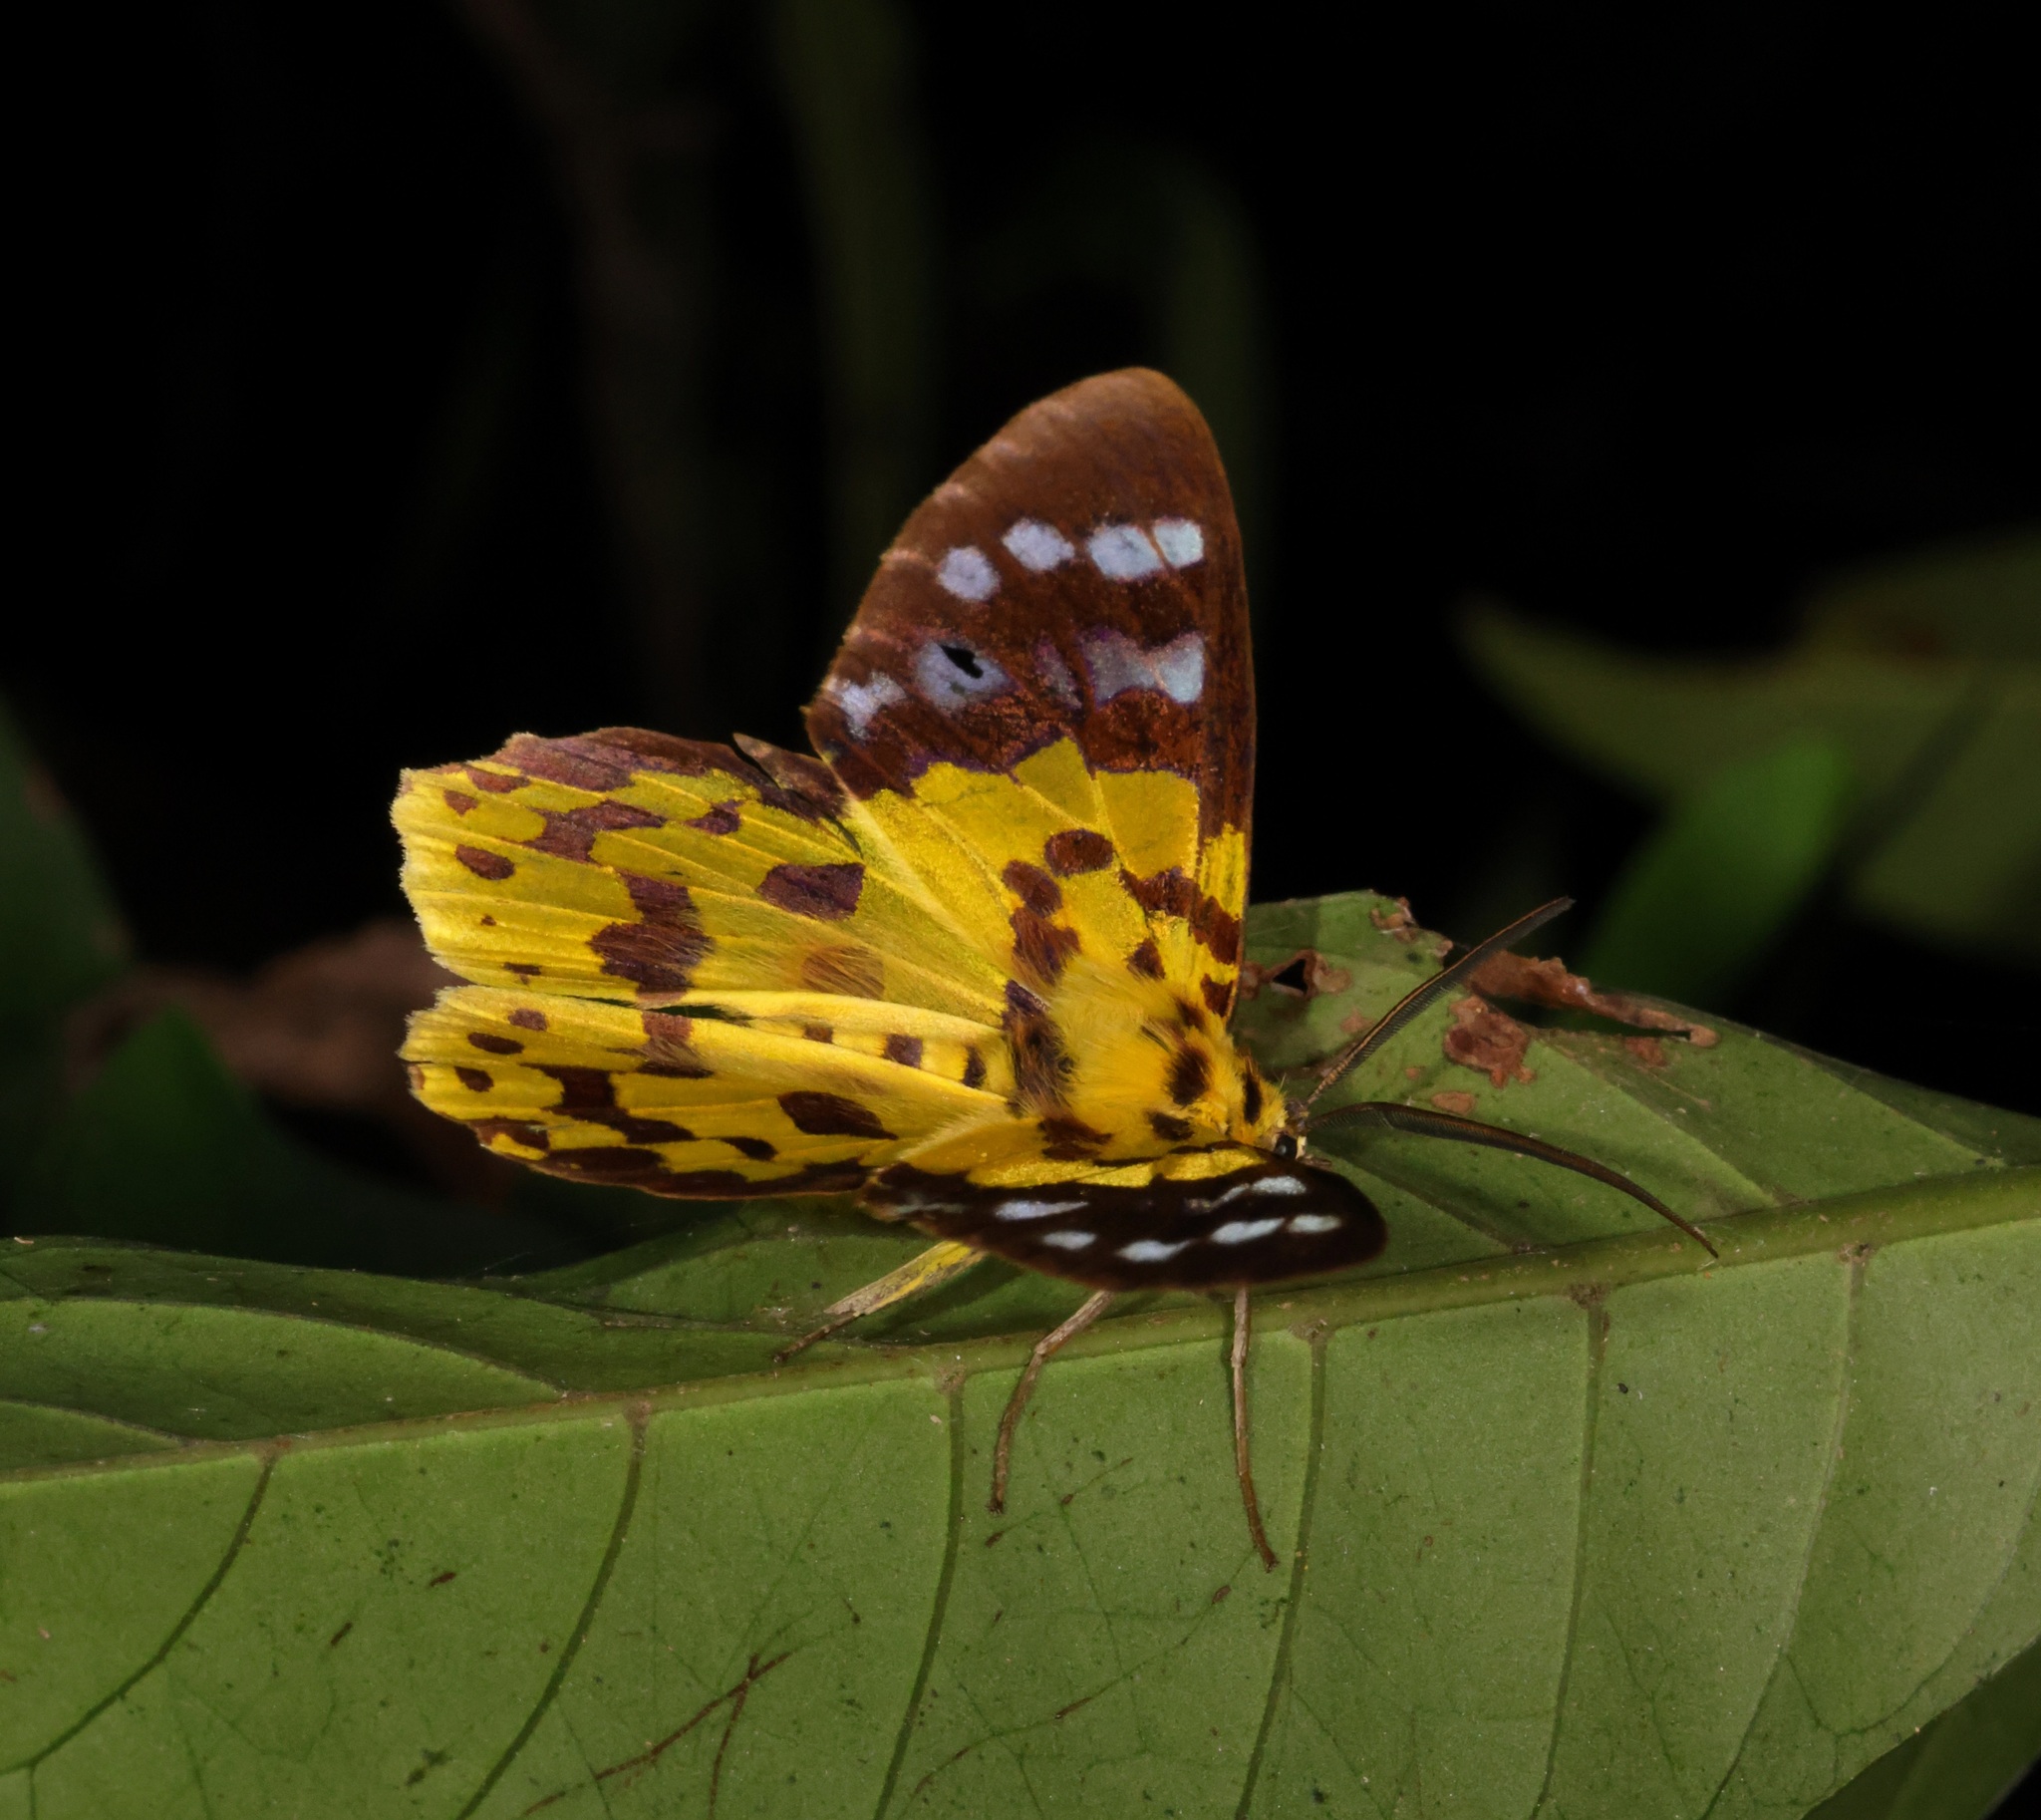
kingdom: Animalia
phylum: Arthropoda
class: Insecta
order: Lepidoptera
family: Geometridae
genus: Dysphania
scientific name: Dysphania militaris
